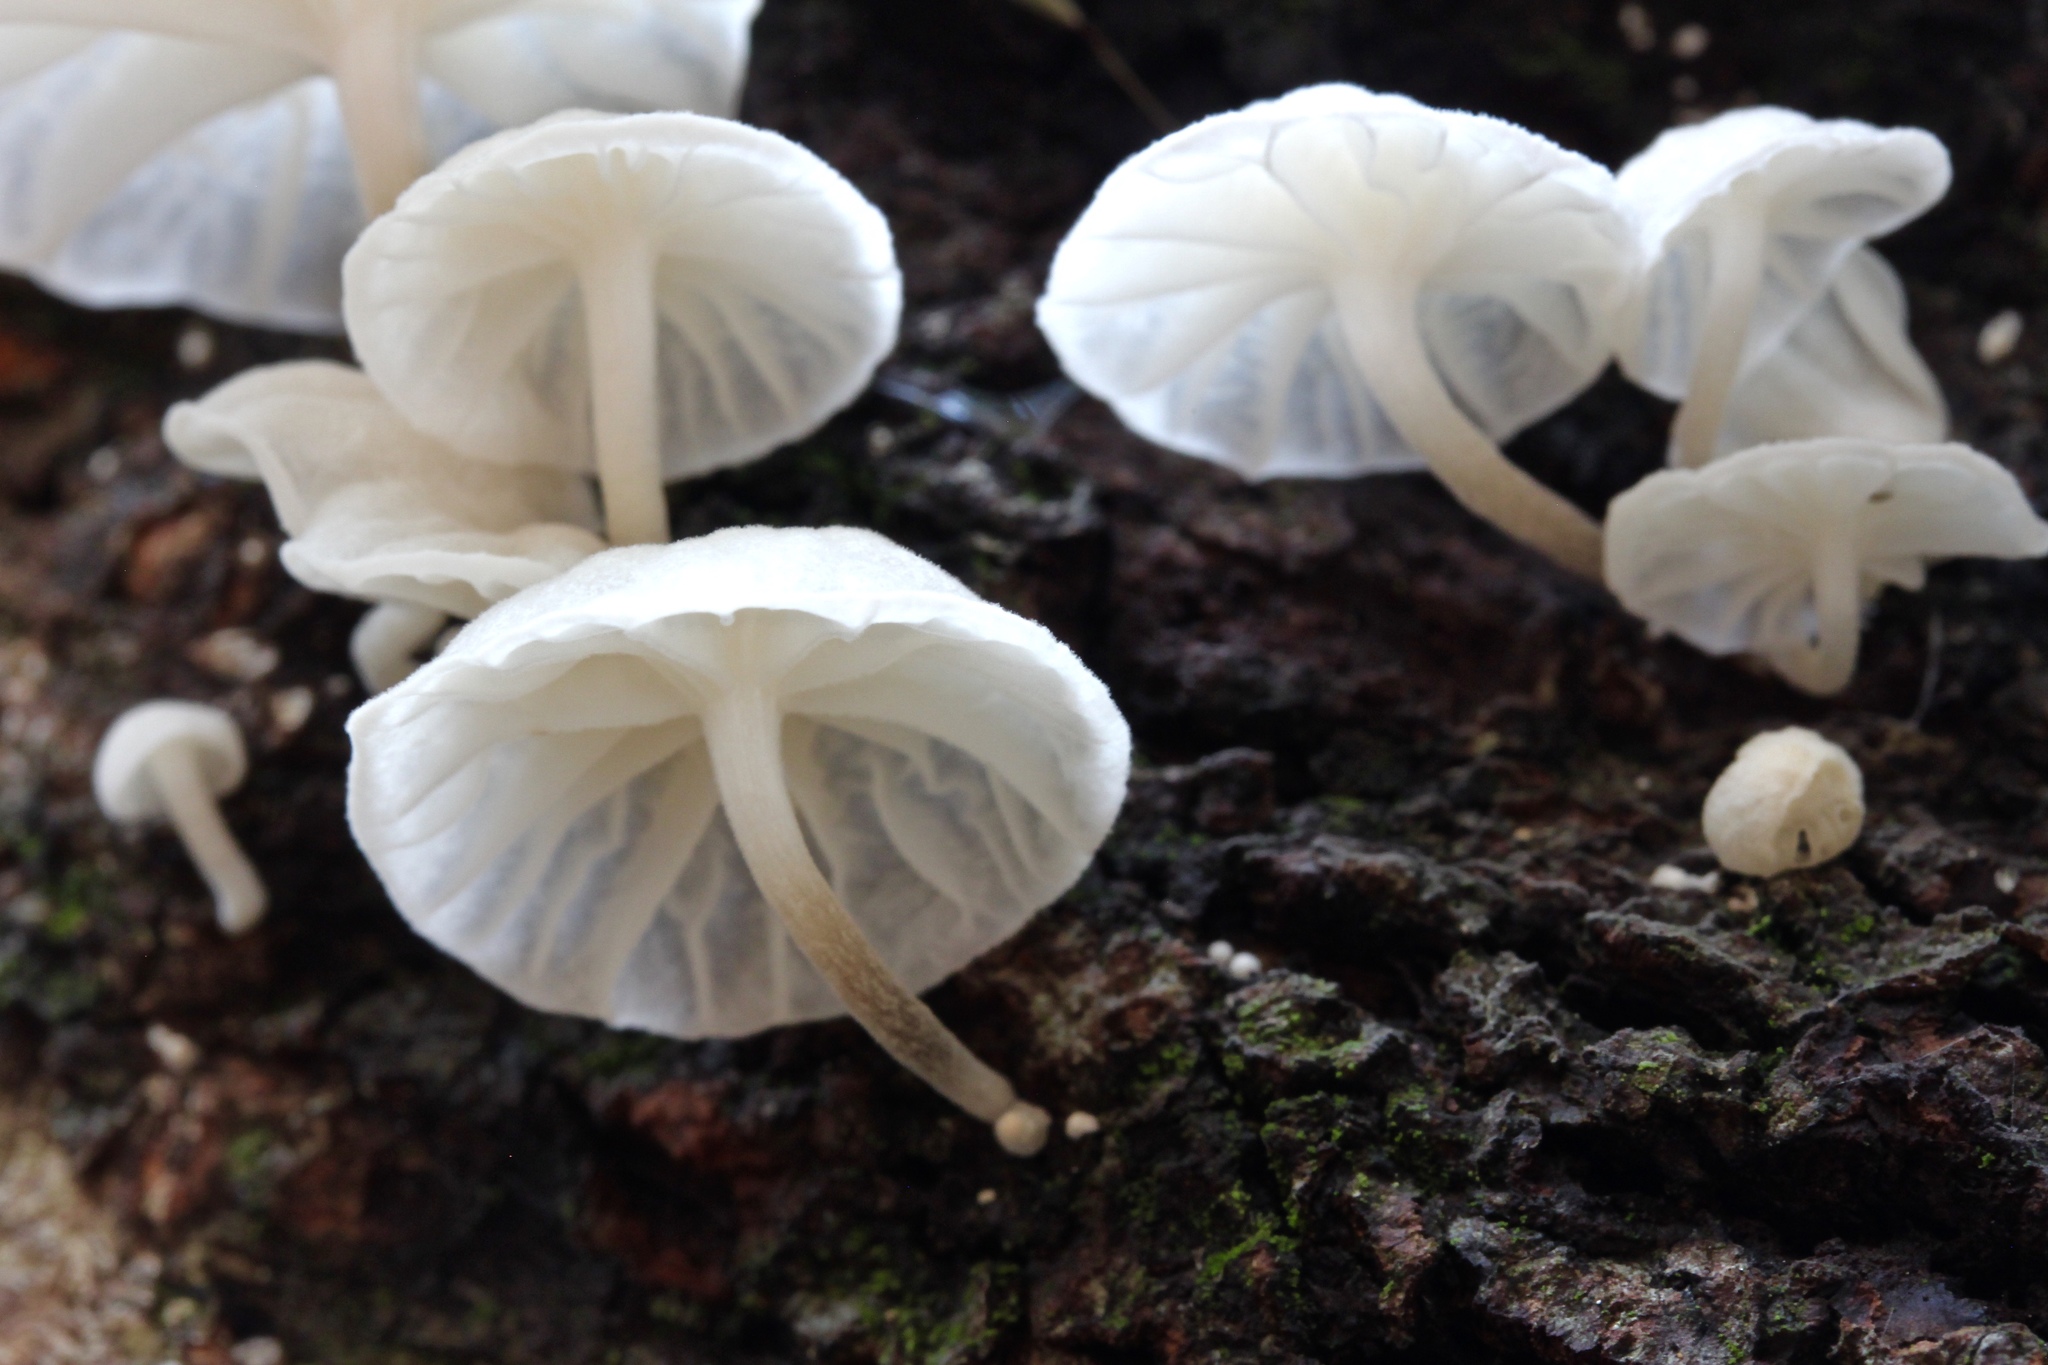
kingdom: Fungi
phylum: Basidiomycota
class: Agaricomycetes
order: Agaricales
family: Omphalotaceae
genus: Marasmiellus
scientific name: Marasmiellus candidus
